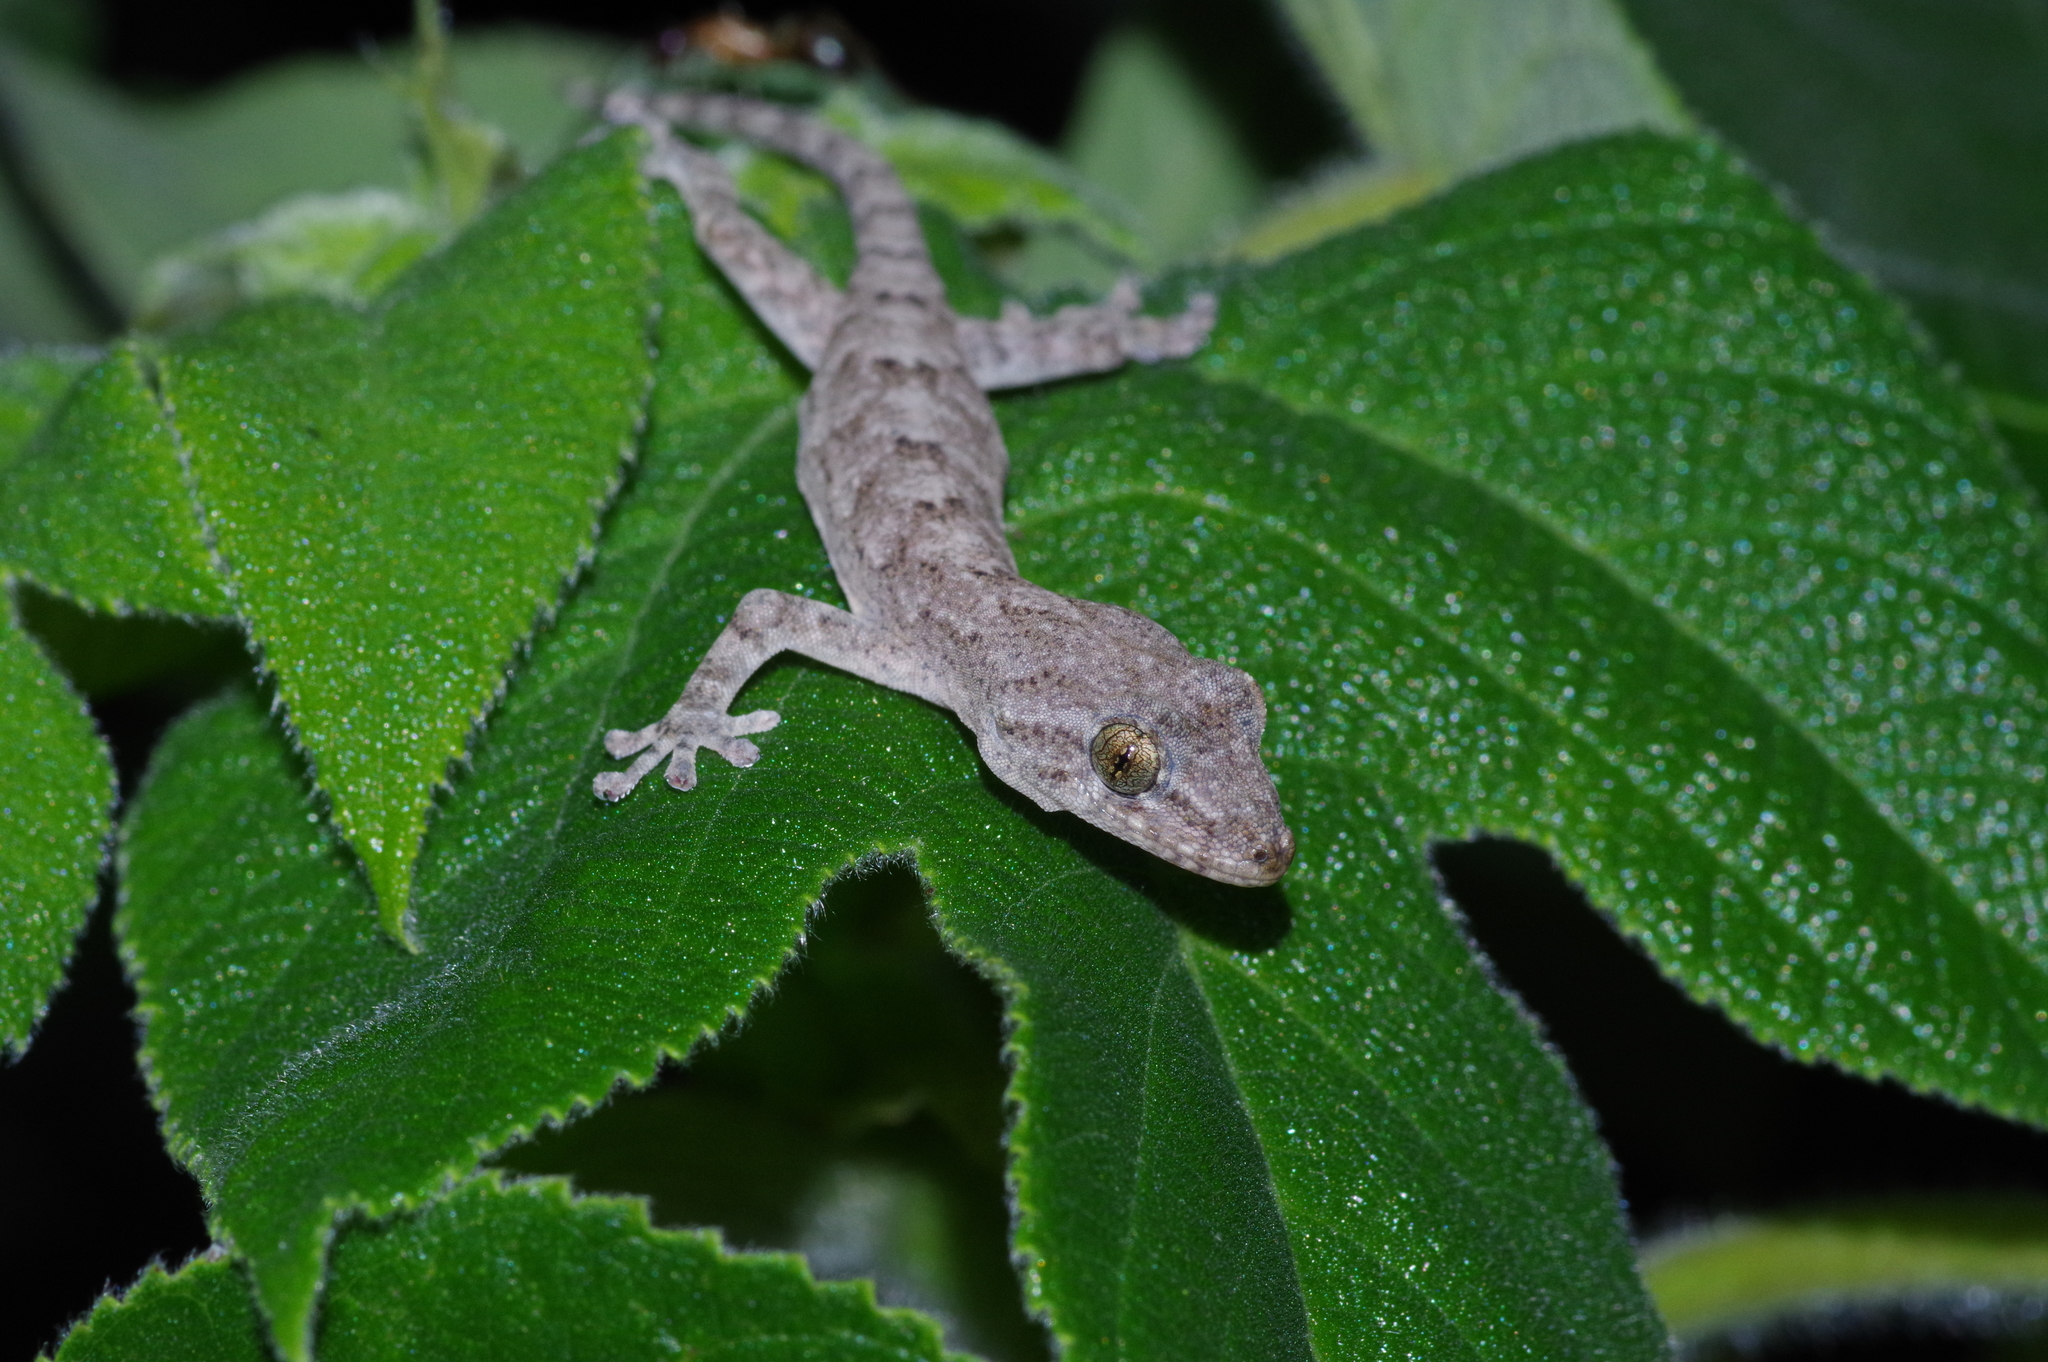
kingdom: Animalia
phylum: Chordata
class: Squamata
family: Gekkonidae
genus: Gekko
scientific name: Gekko hokouensis
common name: Kwangsi gecko
